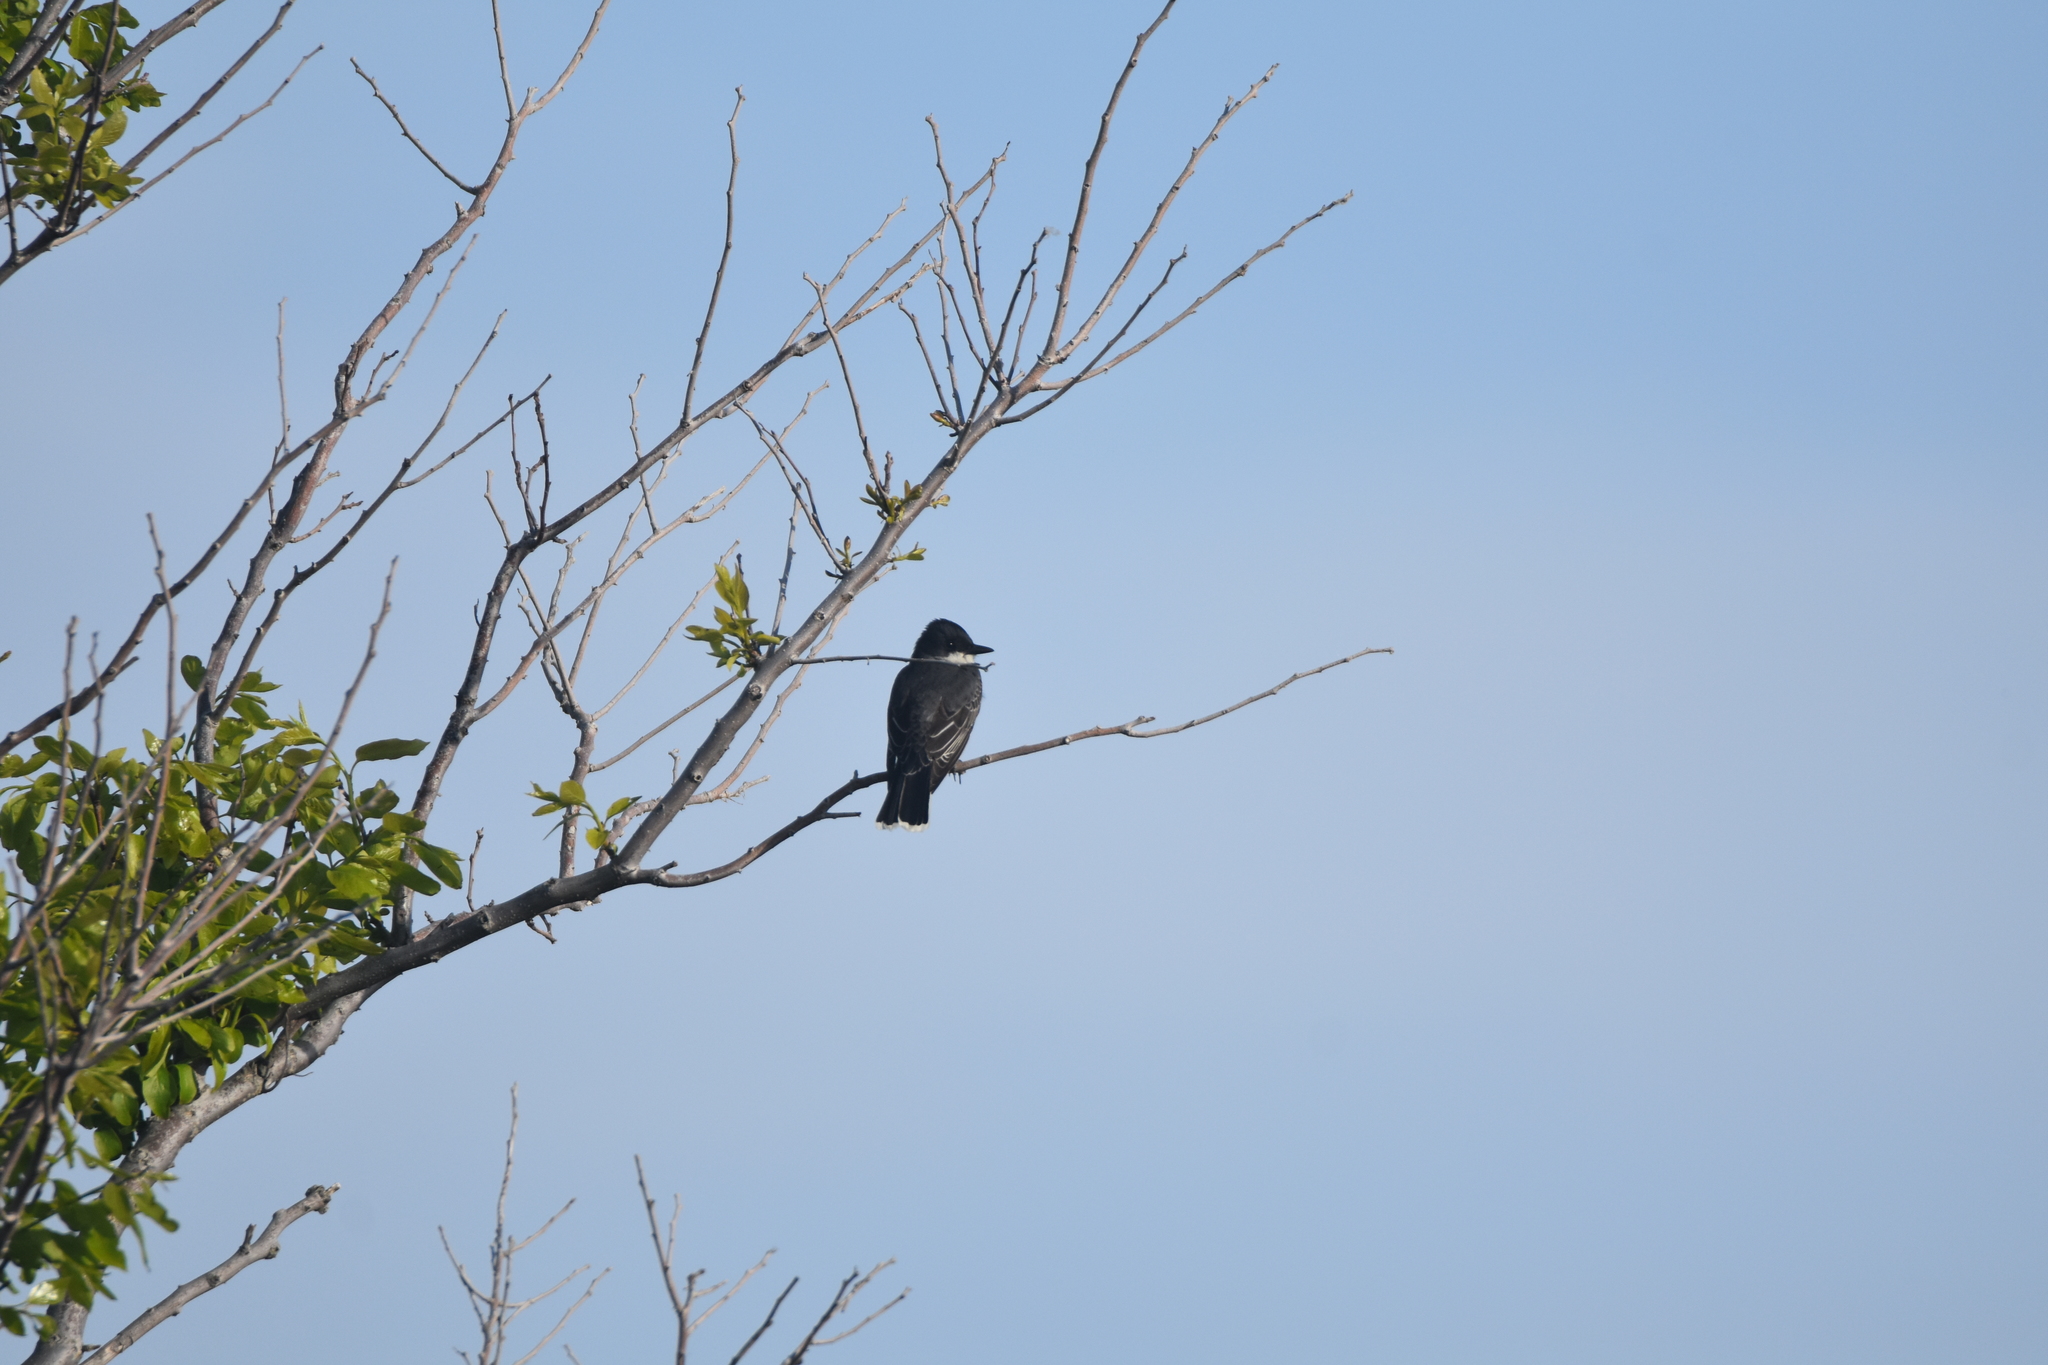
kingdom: Animalia
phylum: Chordata
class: Aves
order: Passeriformes
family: Tyrannidae
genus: Tyrannus
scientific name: Tyrannus tyrannus
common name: Eastern kingbird
